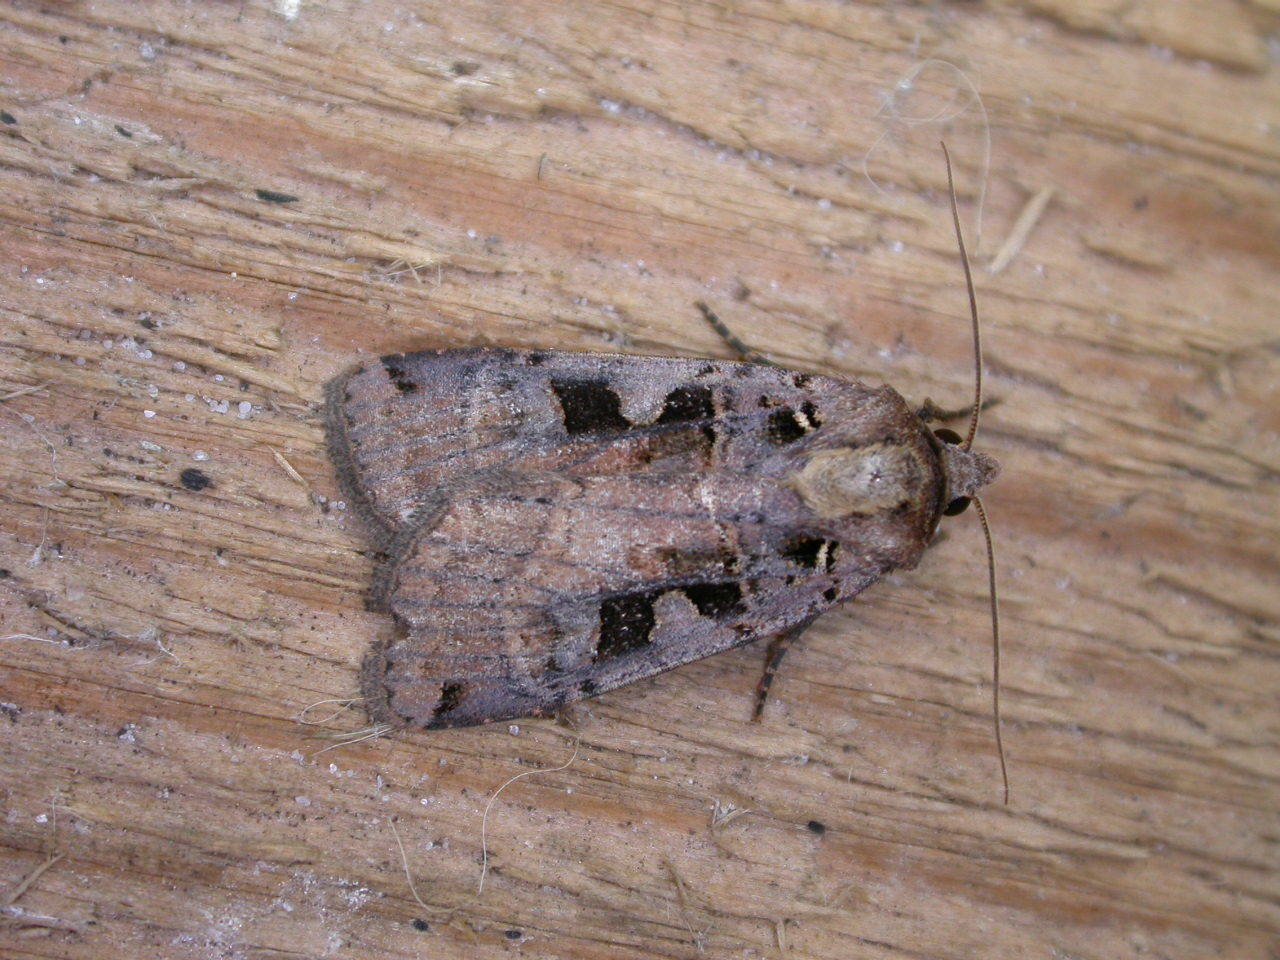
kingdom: Animalia
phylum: Arthropoda
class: Insecta
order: Lepidoptera
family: Noctuidae
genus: Xestia
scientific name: Xestia triangulum
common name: Double square-spot
